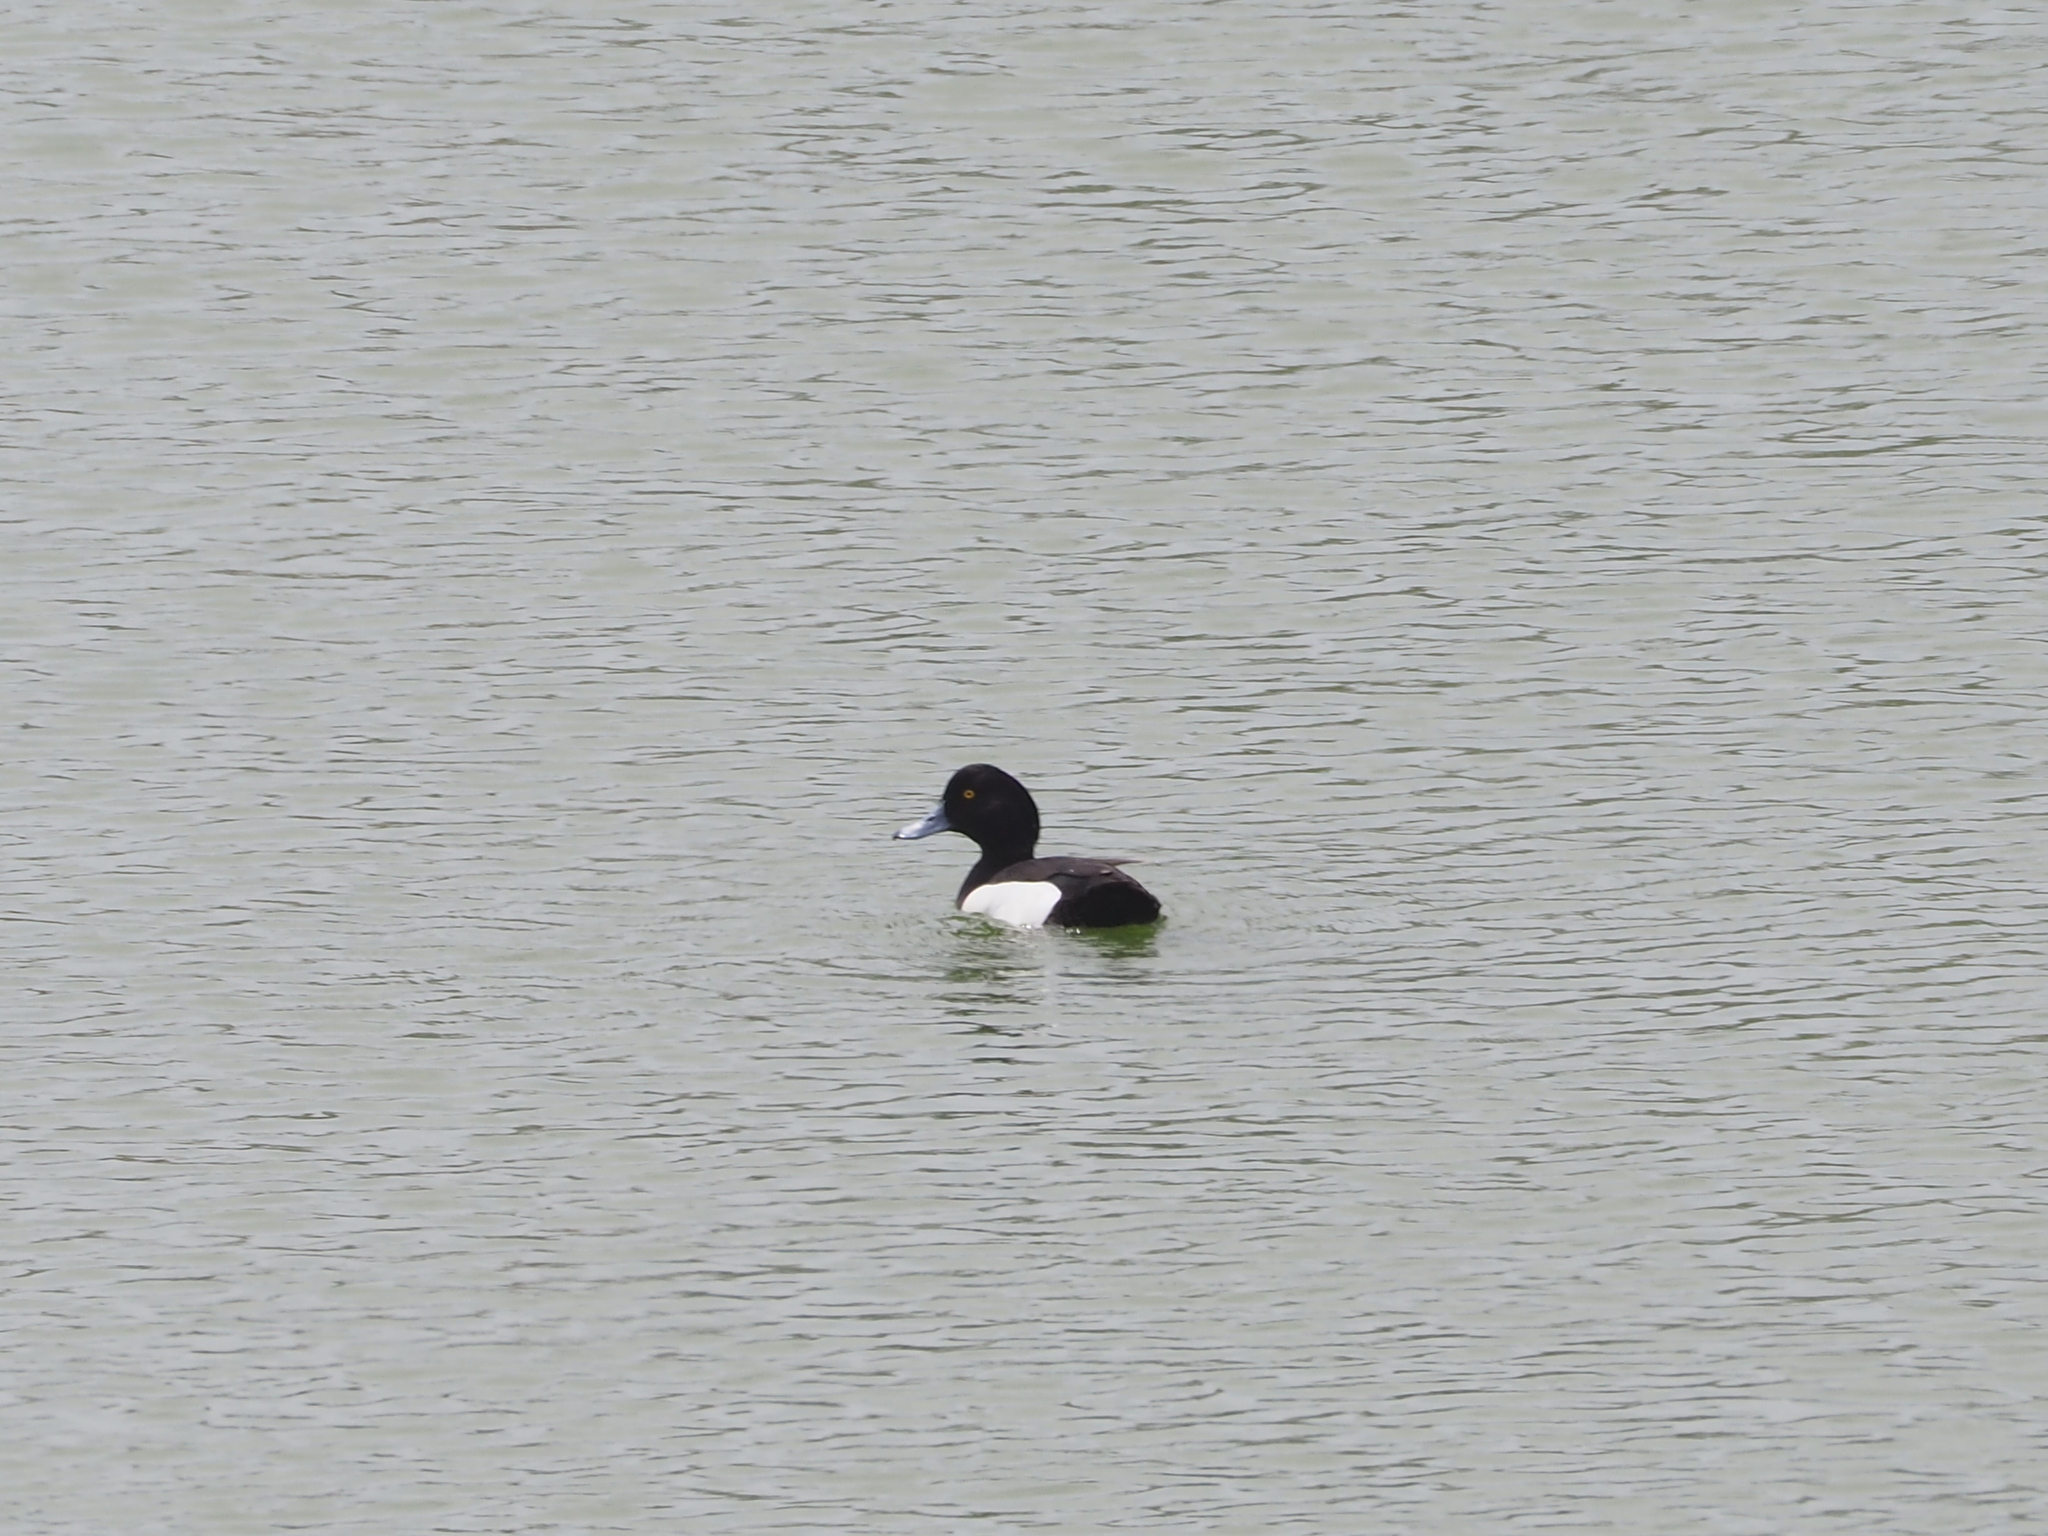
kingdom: Animalia
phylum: Chordata
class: Aves
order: Anseriformes
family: Anatidae
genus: Aythya
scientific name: Aythya fuligula
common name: Tufted duck
